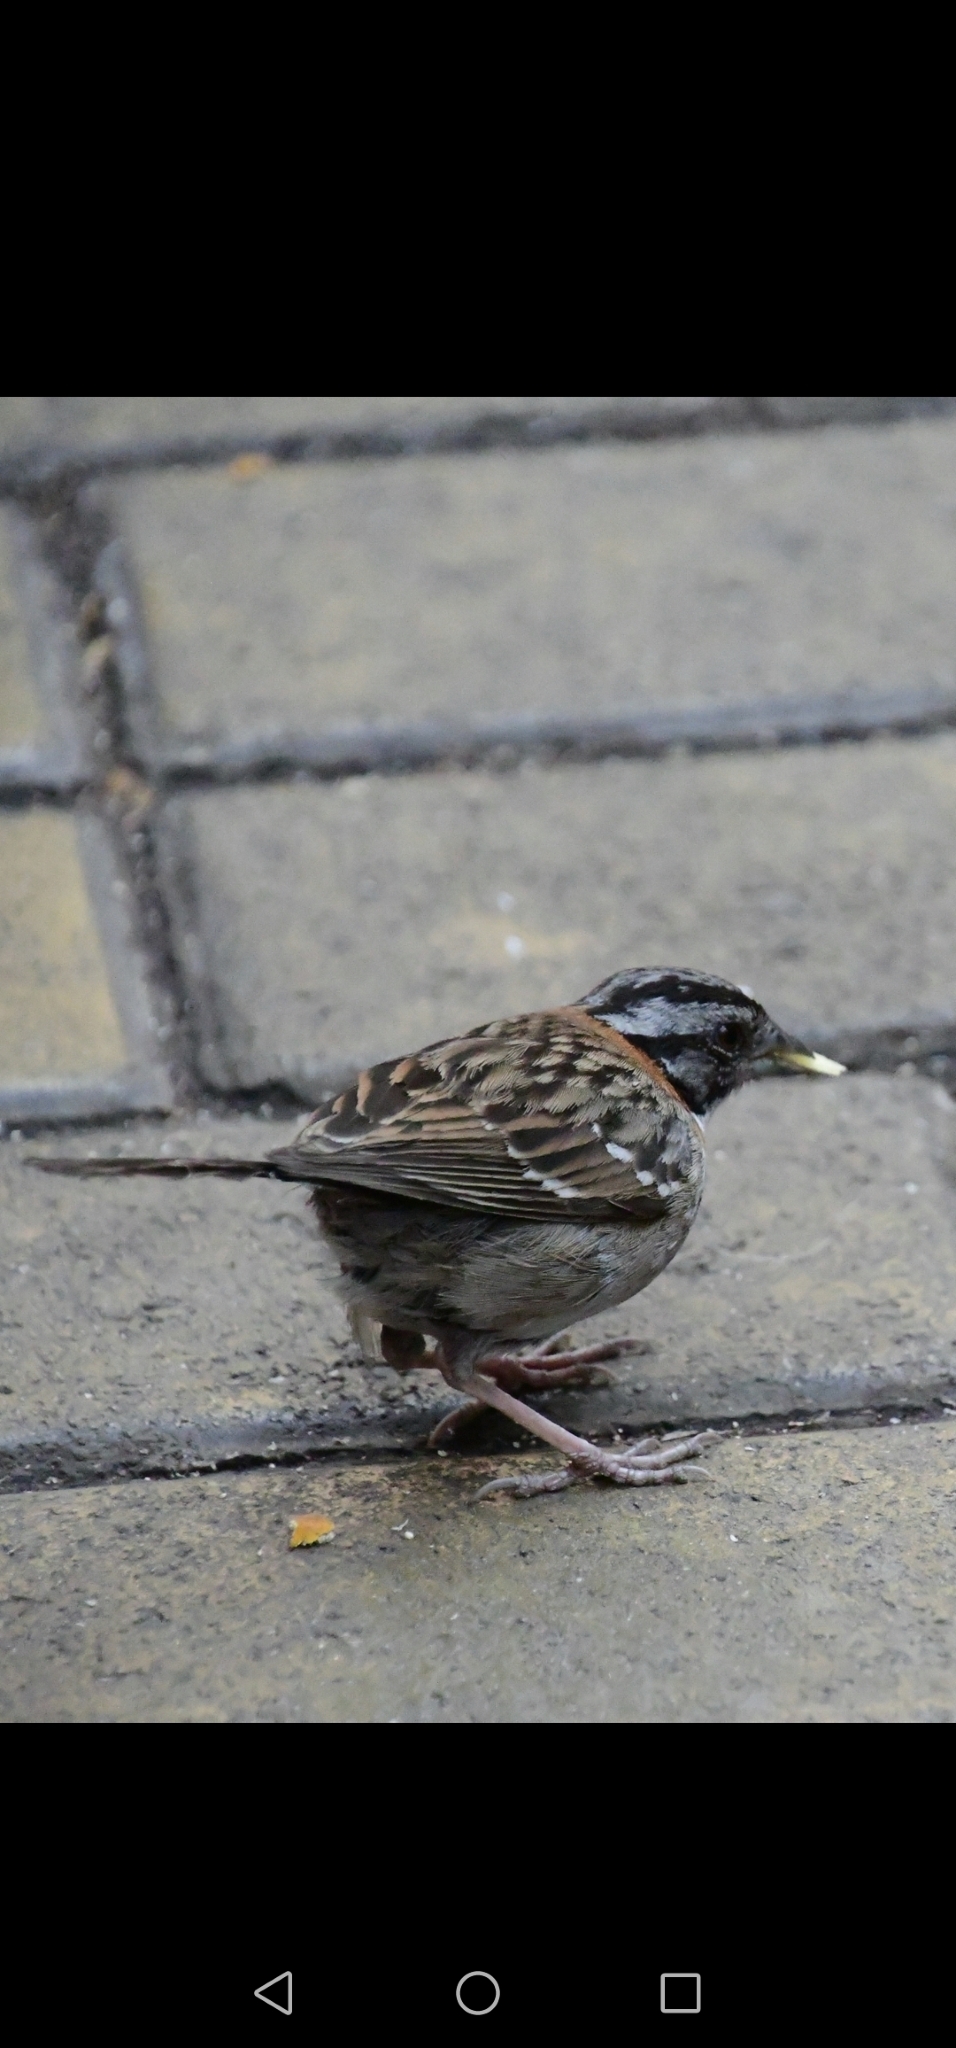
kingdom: Animalia
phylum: Chordata
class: Aves
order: Passeriformes
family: Passerellidae
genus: Zonotrichia
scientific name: Zonotrichia capensis
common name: Rufous-collared sparrow
